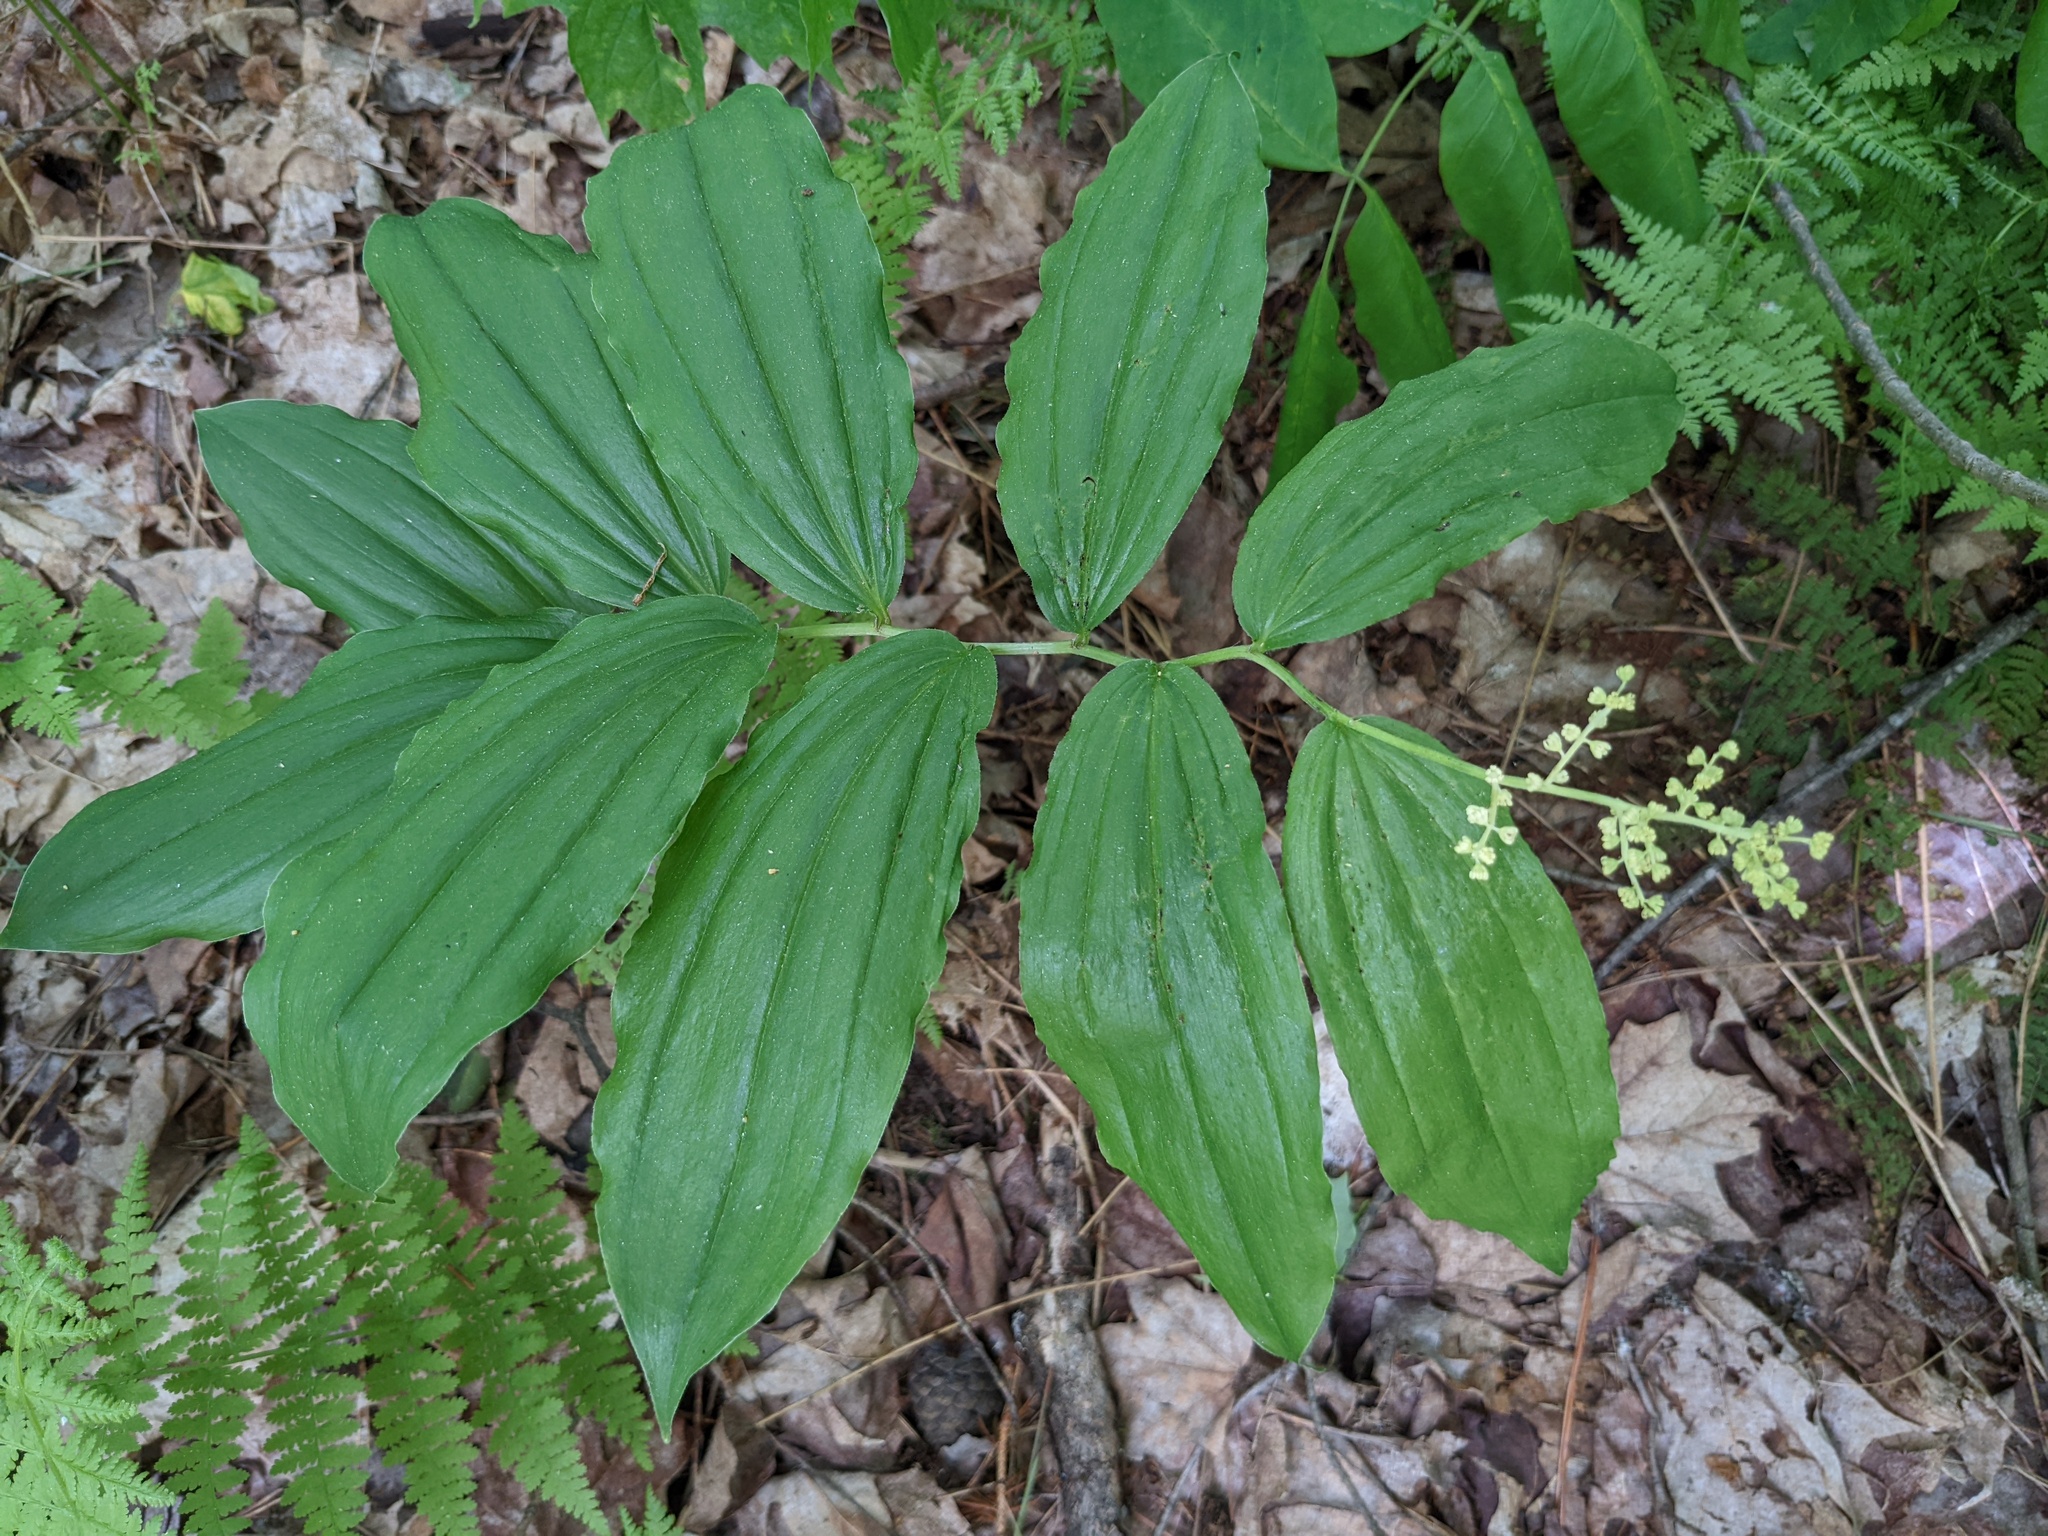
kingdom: Plantae
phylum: Tracheophyta
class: Liliopsida
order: Asparagales
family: Asparagaceae
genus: Maianthemum
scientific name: Maianthemum racemosum
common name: False spikenard
